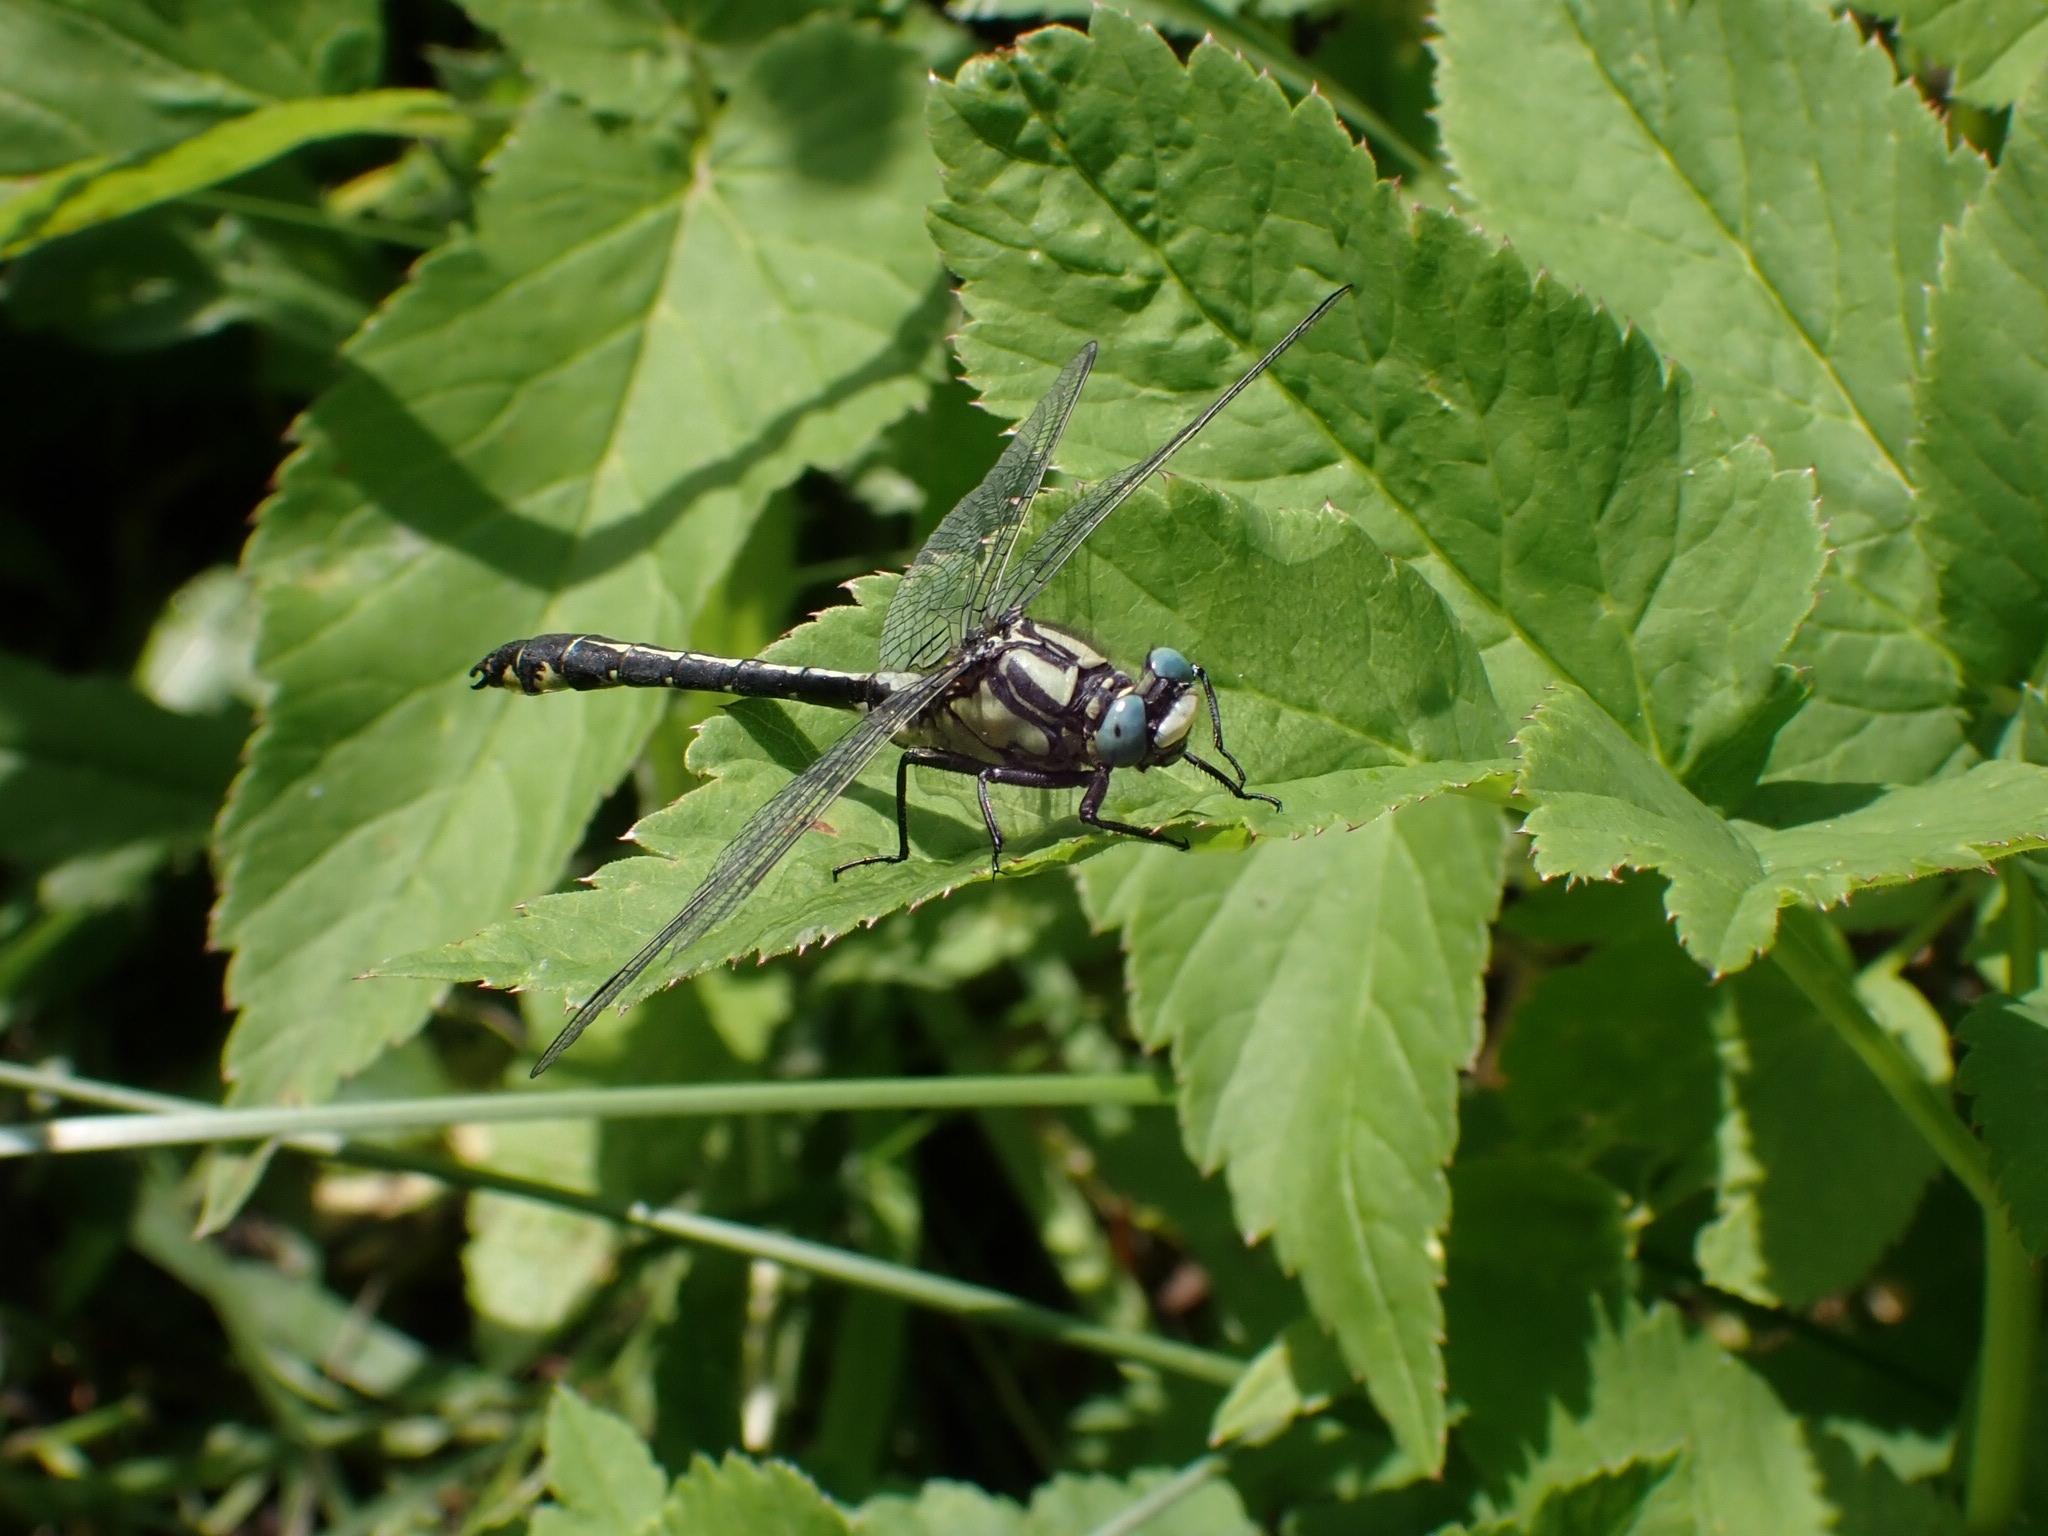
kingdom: Animalia
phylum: Arthropoda
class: Insecta
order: Odonata
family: Gomphidae
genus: Gomphus
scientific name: Gomphus vulgatissimus
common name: Club-tailed dragonfly
